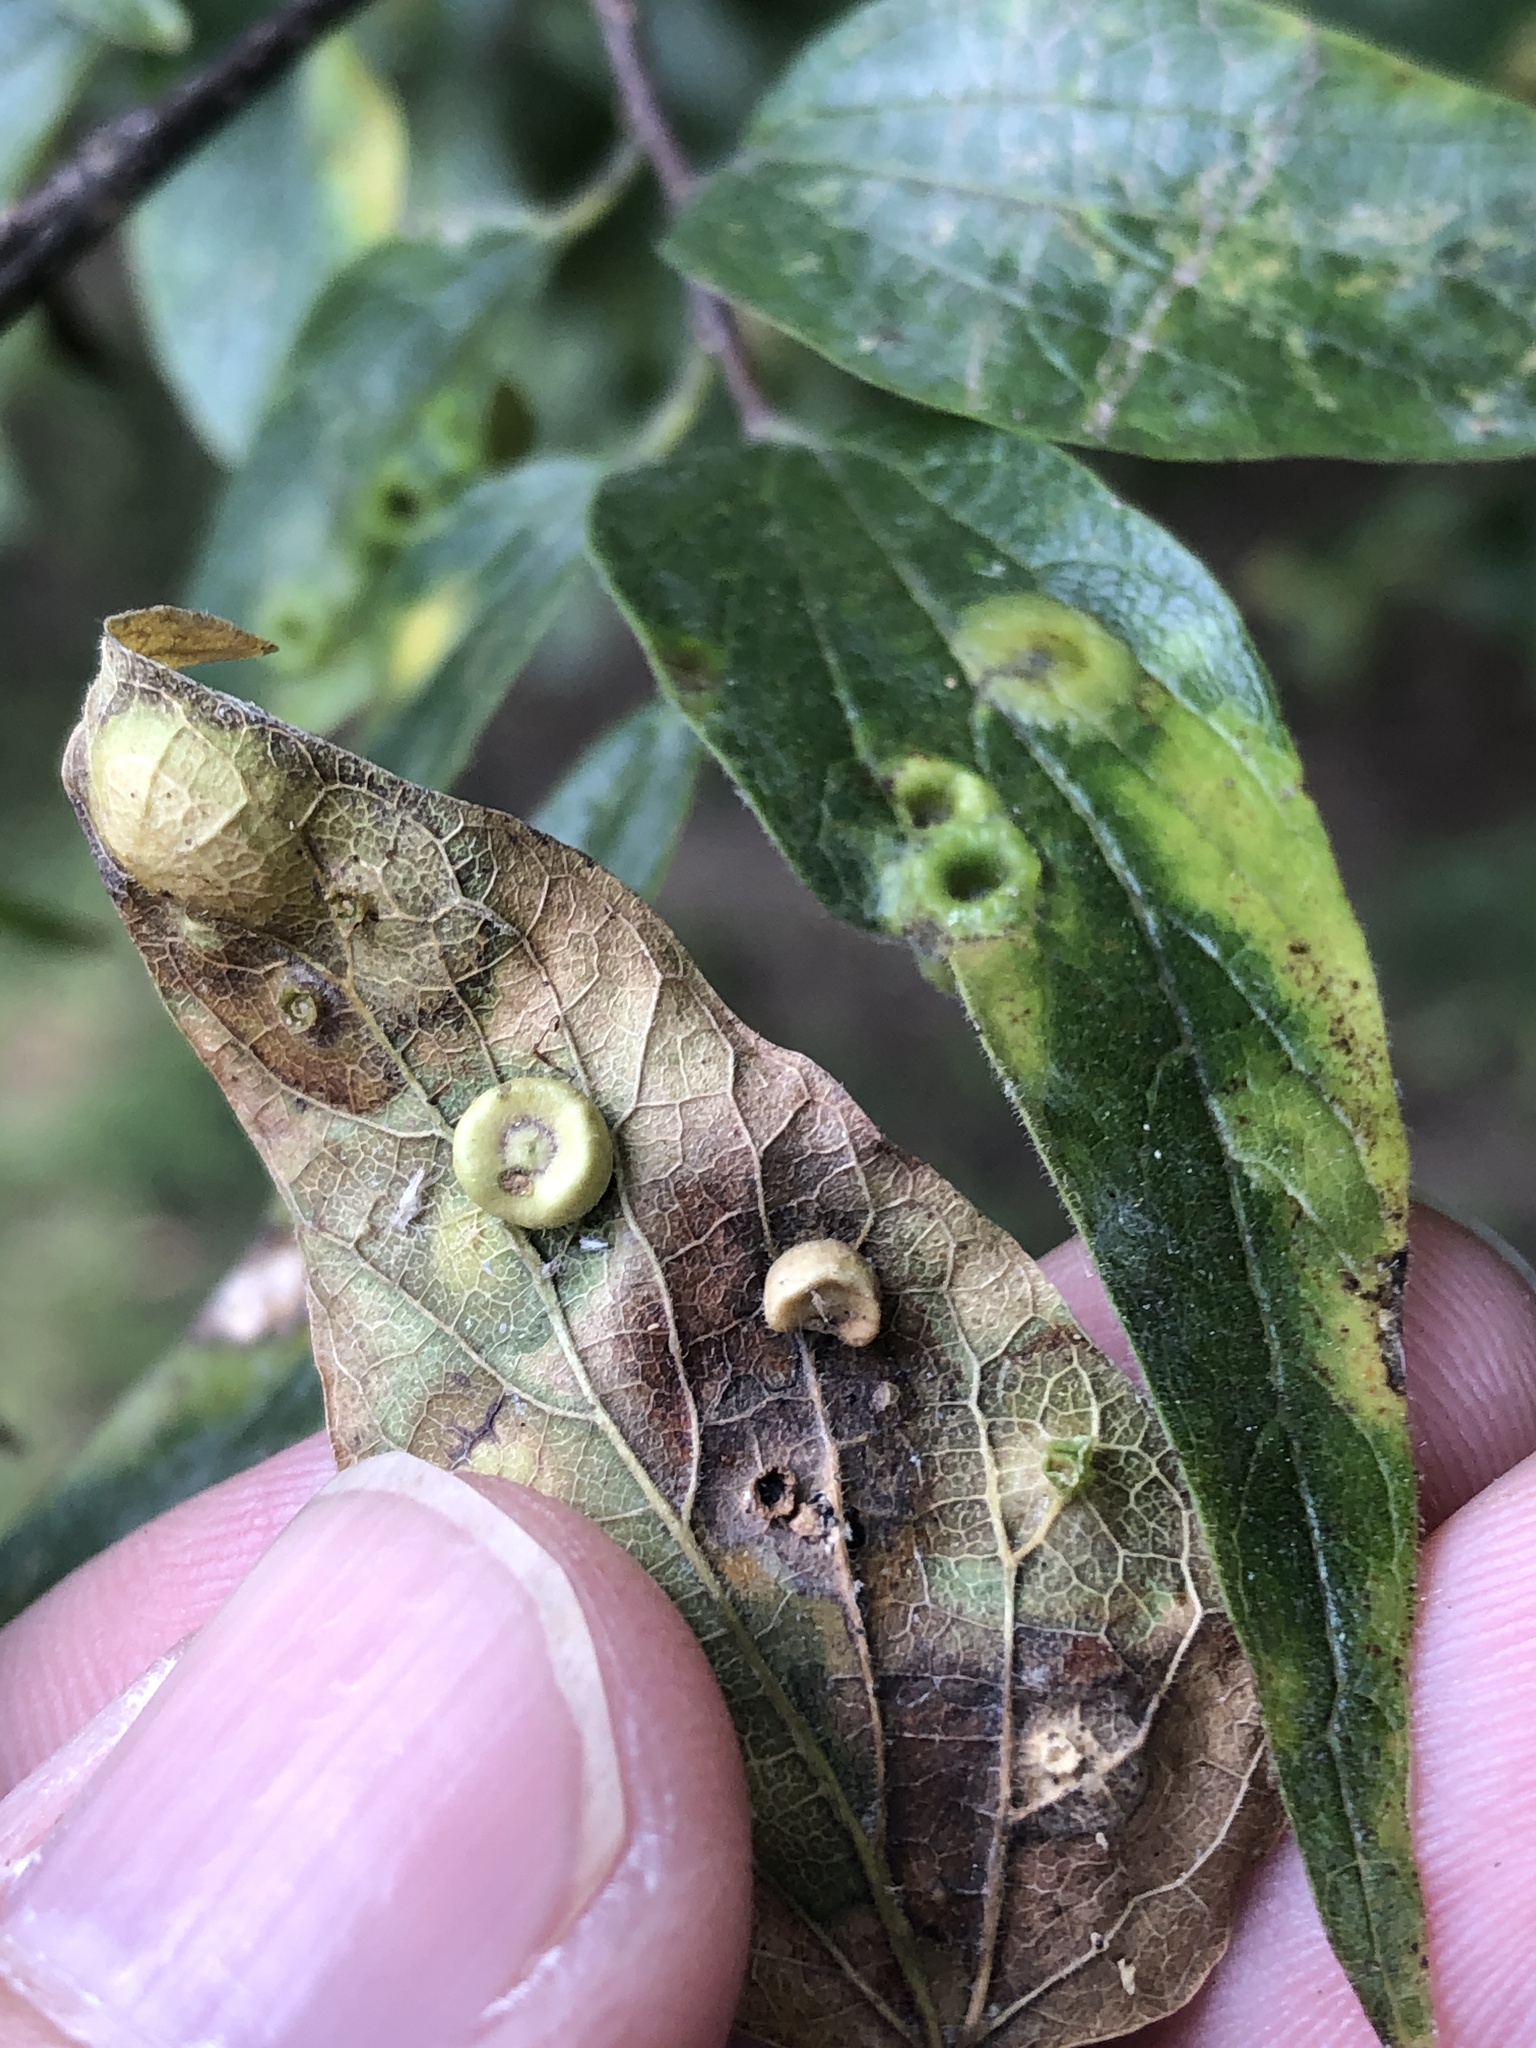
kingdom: Animalia
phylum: Arthropoda
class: Insecta
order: Hemiptera
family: Aphalaridae
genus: Pachypsylla
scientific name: Pachypsylla celtidismamma
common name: Hackberry nipplegall psyllid
